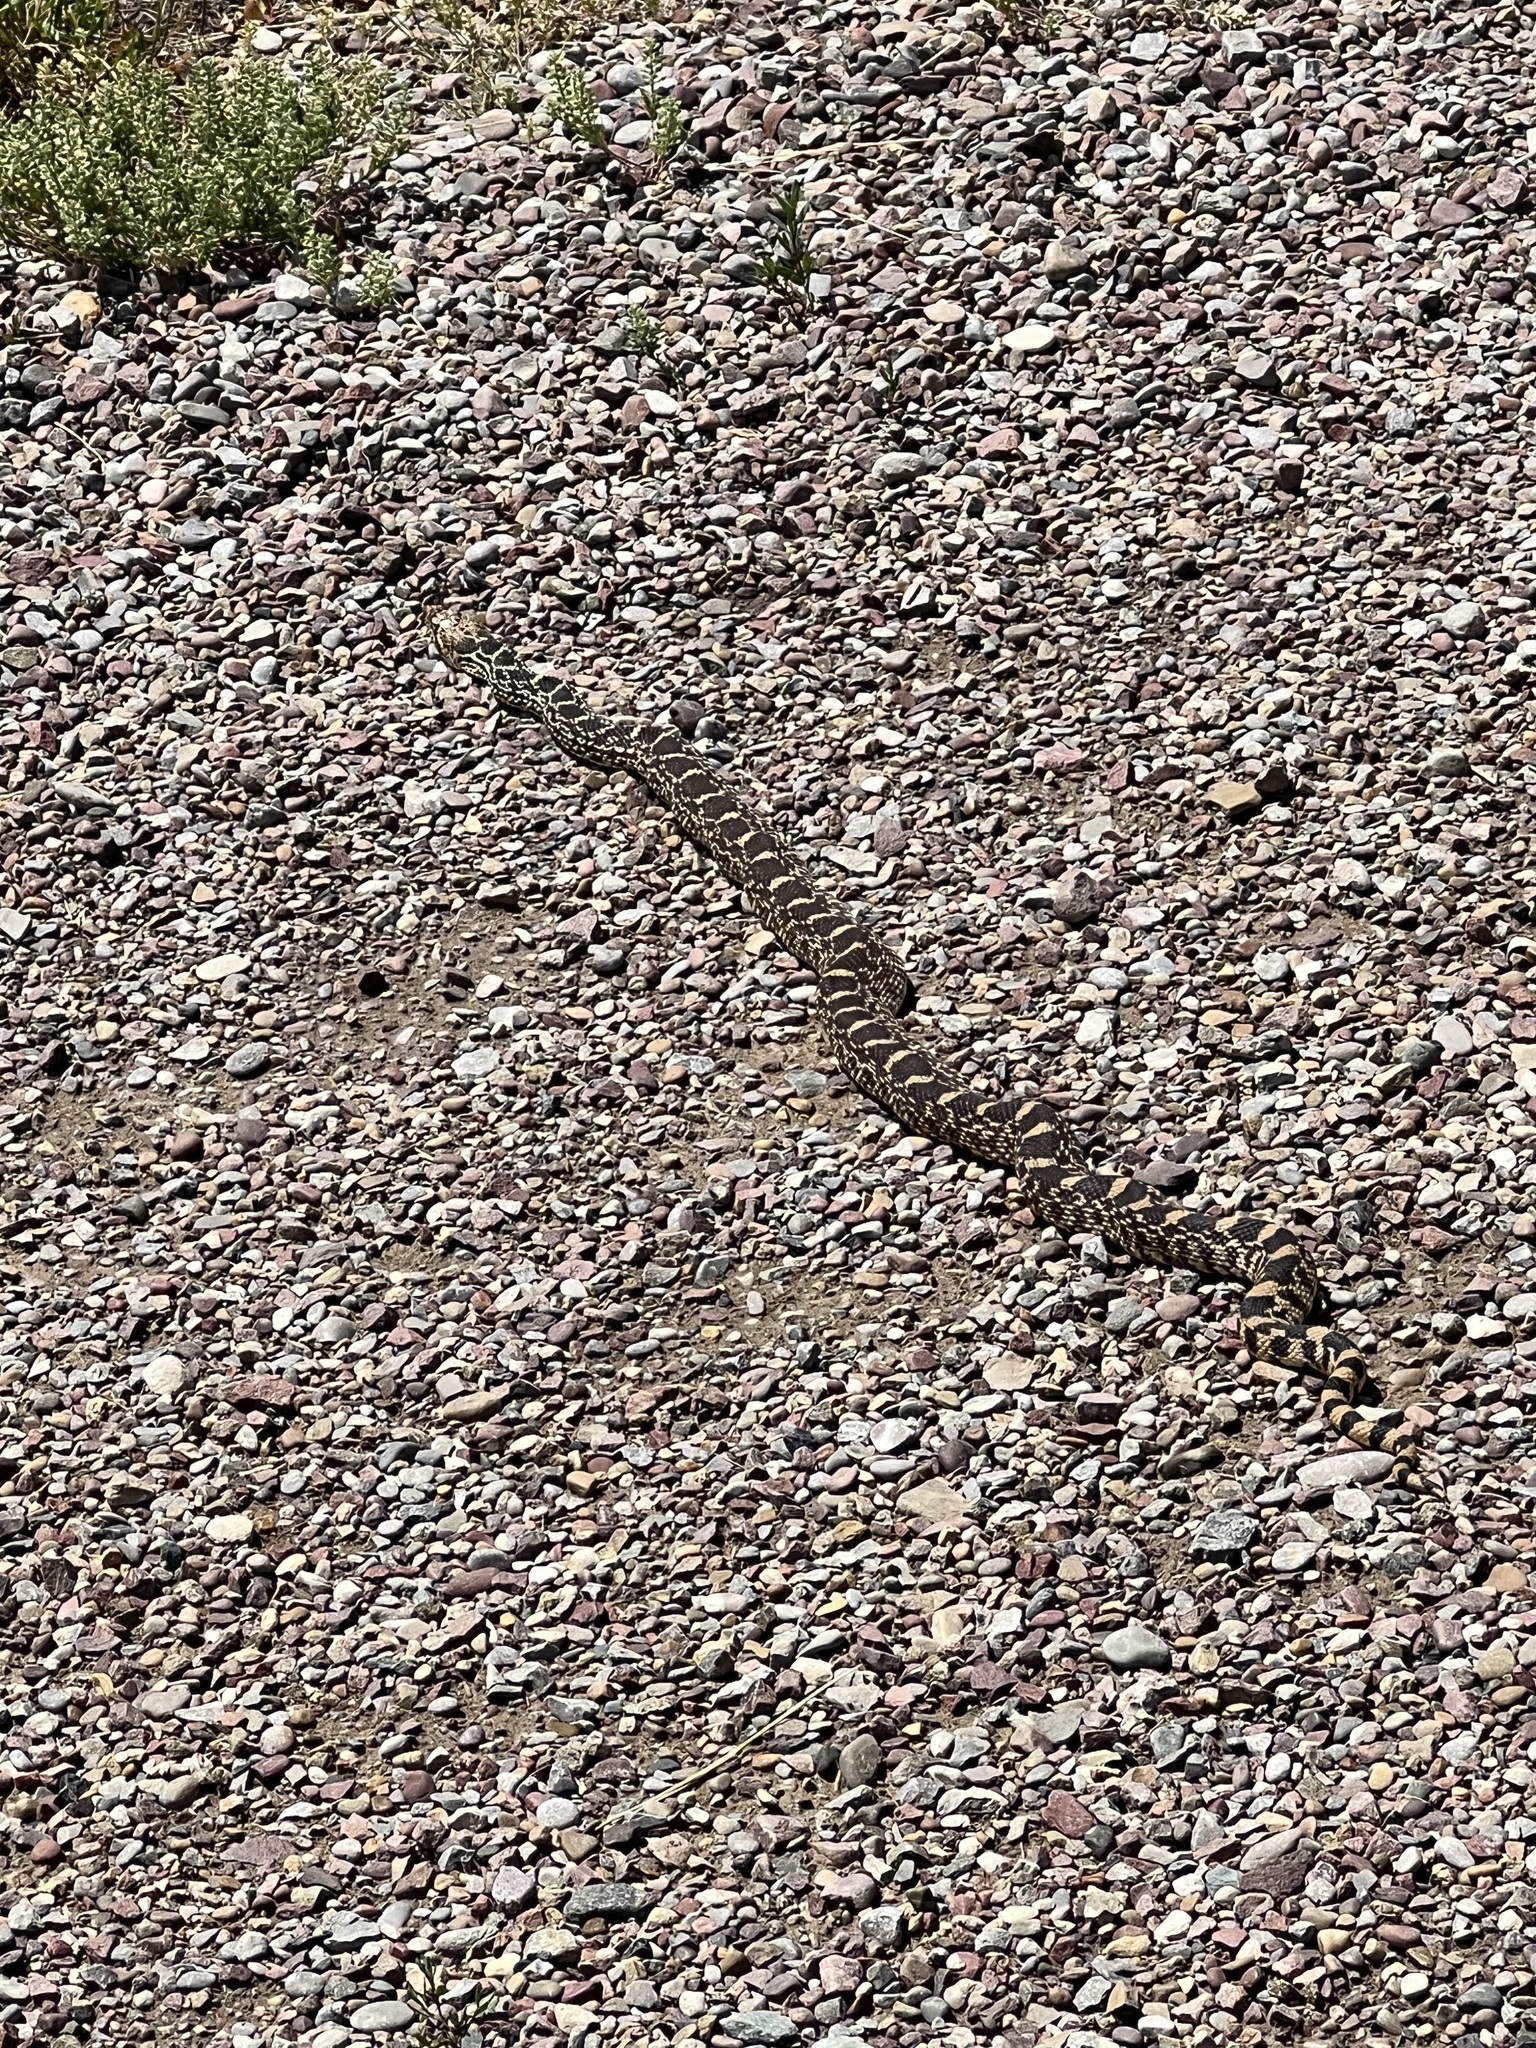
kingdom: Animalia
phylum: Chordata
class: Squamata
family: Colubridae
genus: Pituophis
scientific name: Pituophis catenifer
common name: Gopher snake
